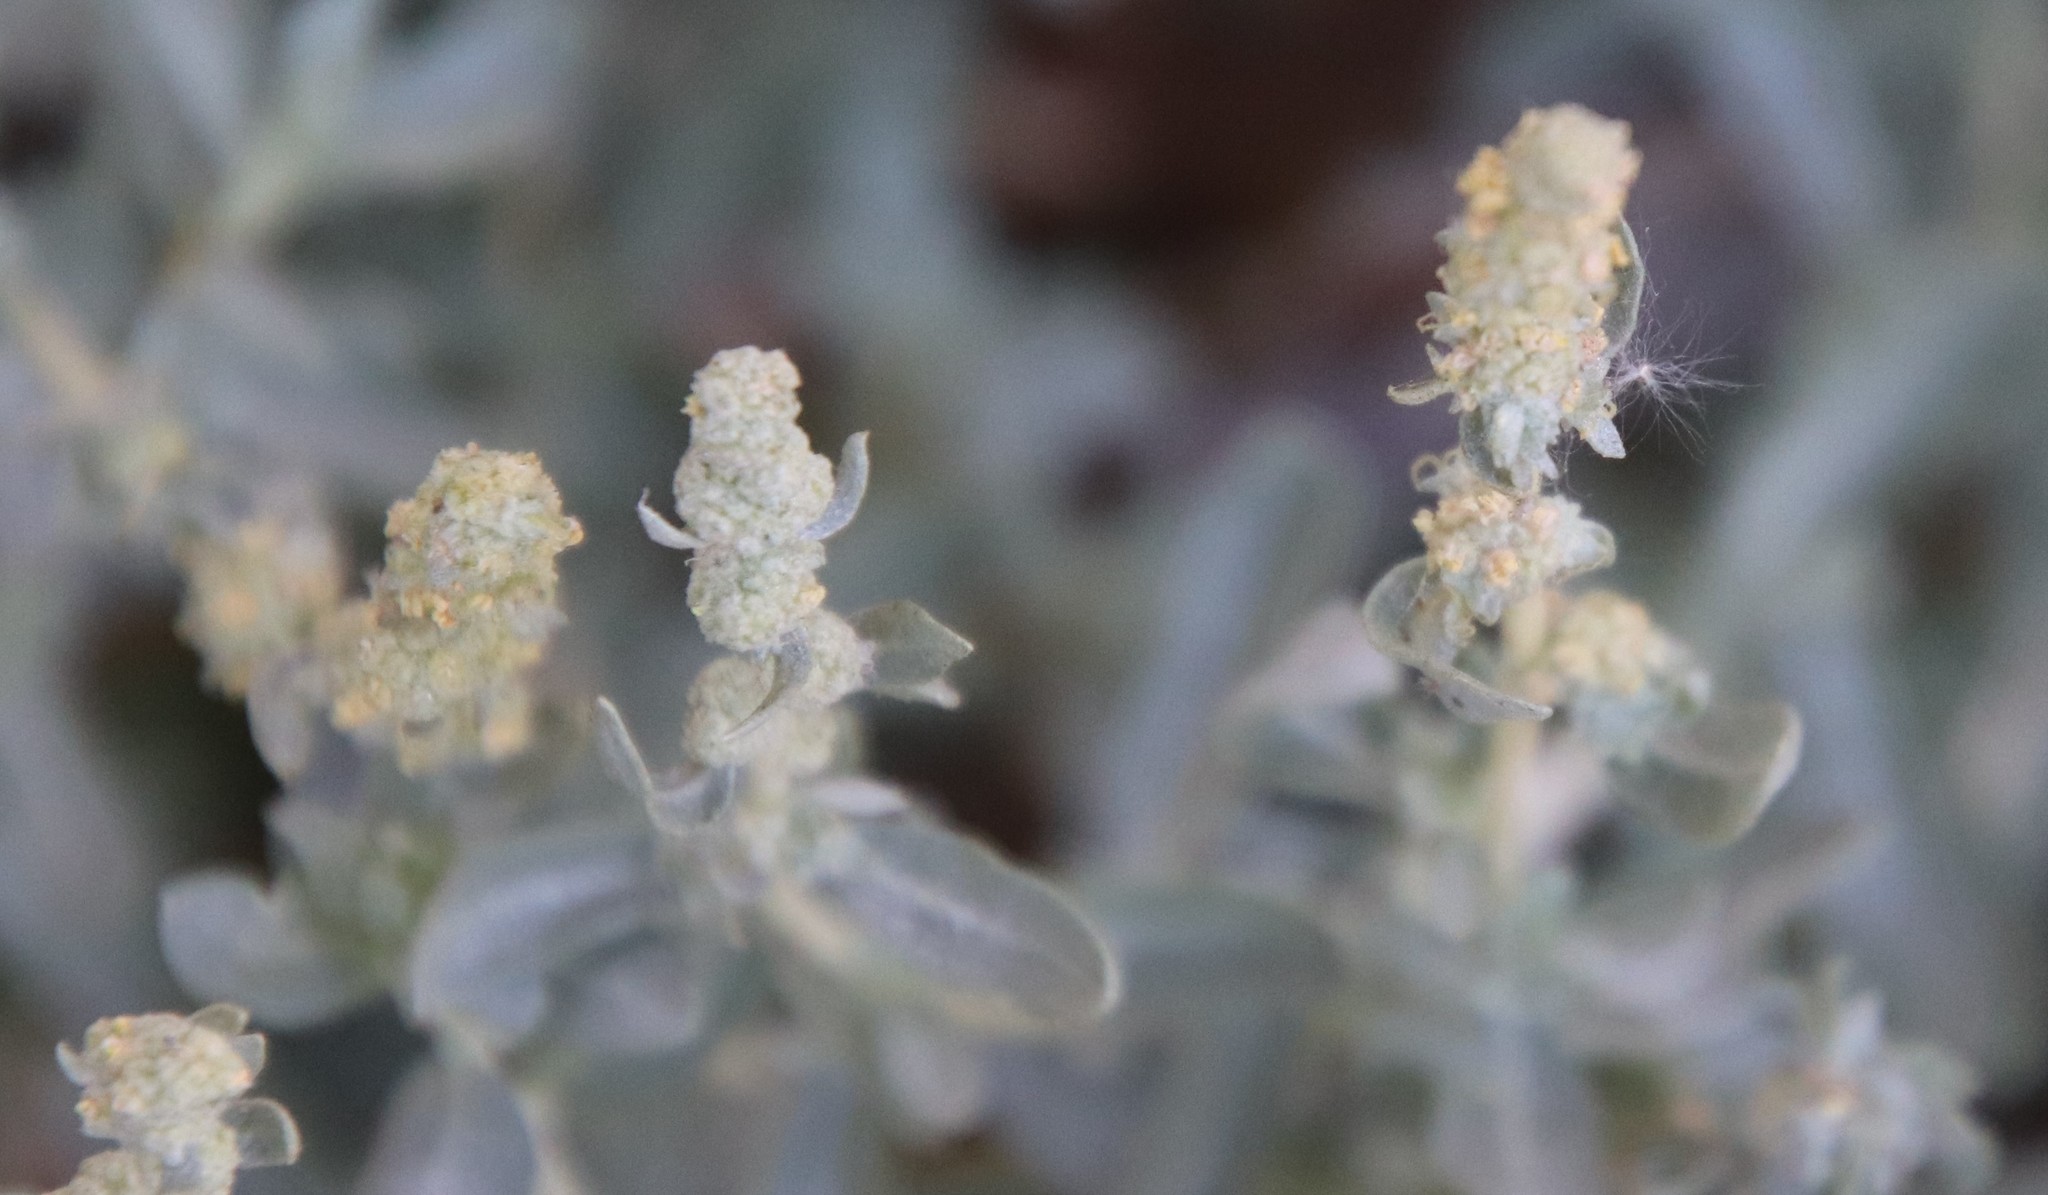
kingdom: Plantae
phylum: Tracheophyta
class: Magnoliopsida
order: Caryophyllales
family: Amaranthaceae
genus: Atriplex
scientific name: Atriplex glauca
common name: Waxy saltbush
